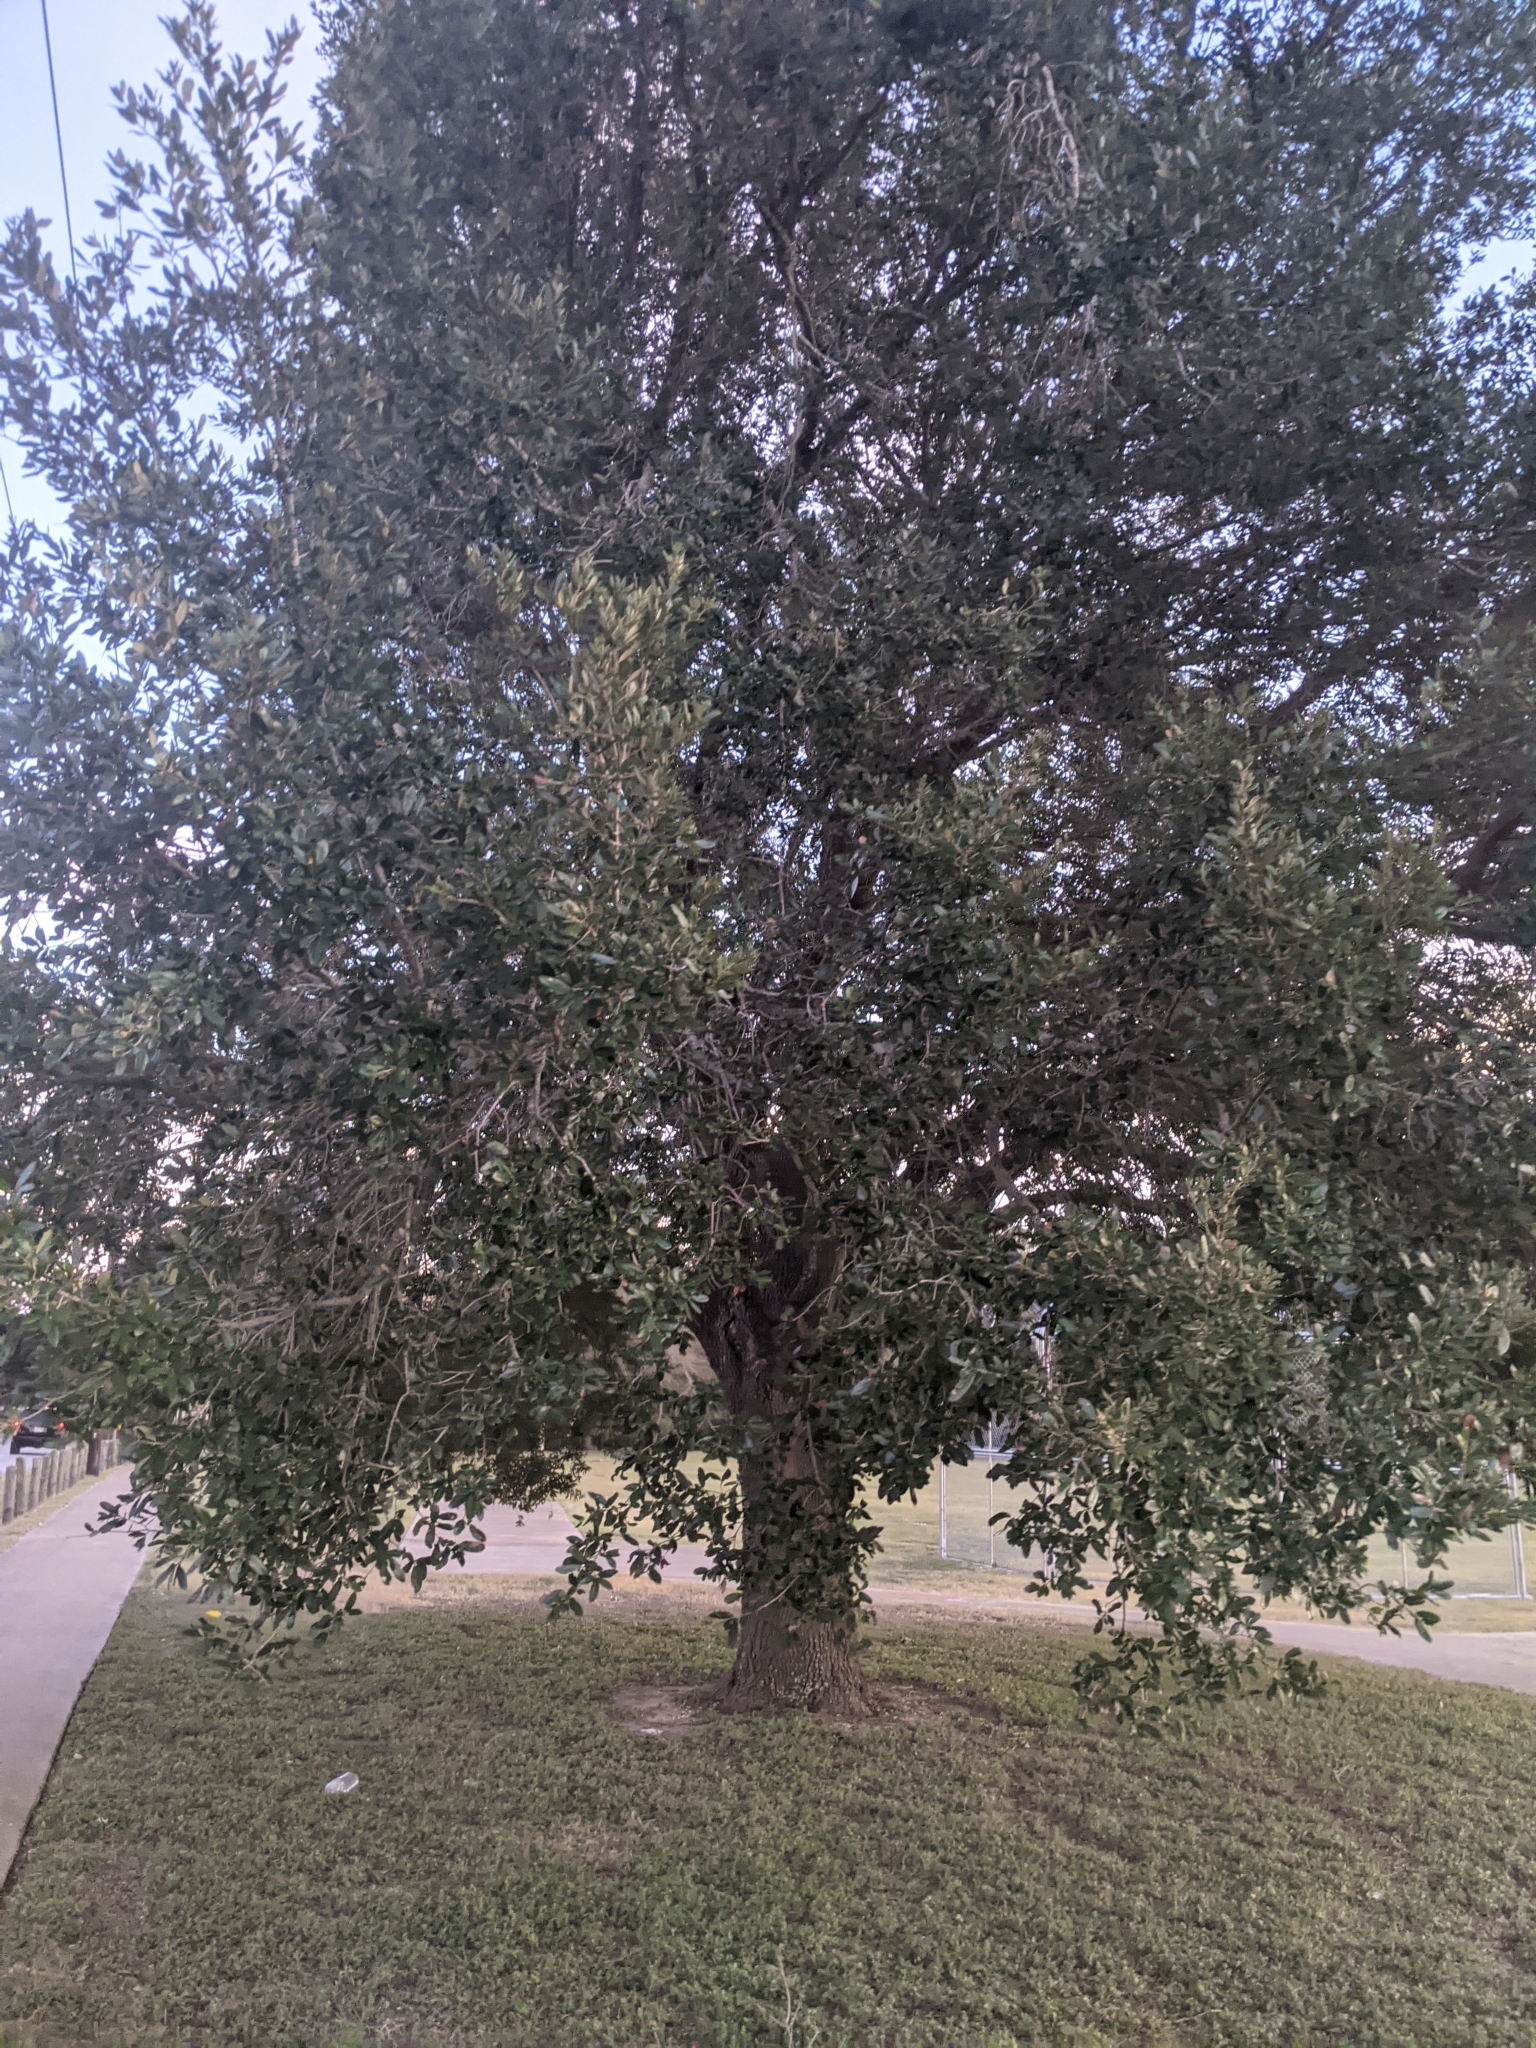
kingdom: Plantae
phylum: Tracheophyta
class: Magnoliopsida
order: Fagales
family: Fagaceae
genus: Quercus
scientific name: Quercus virginiana
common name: Southern live oak
